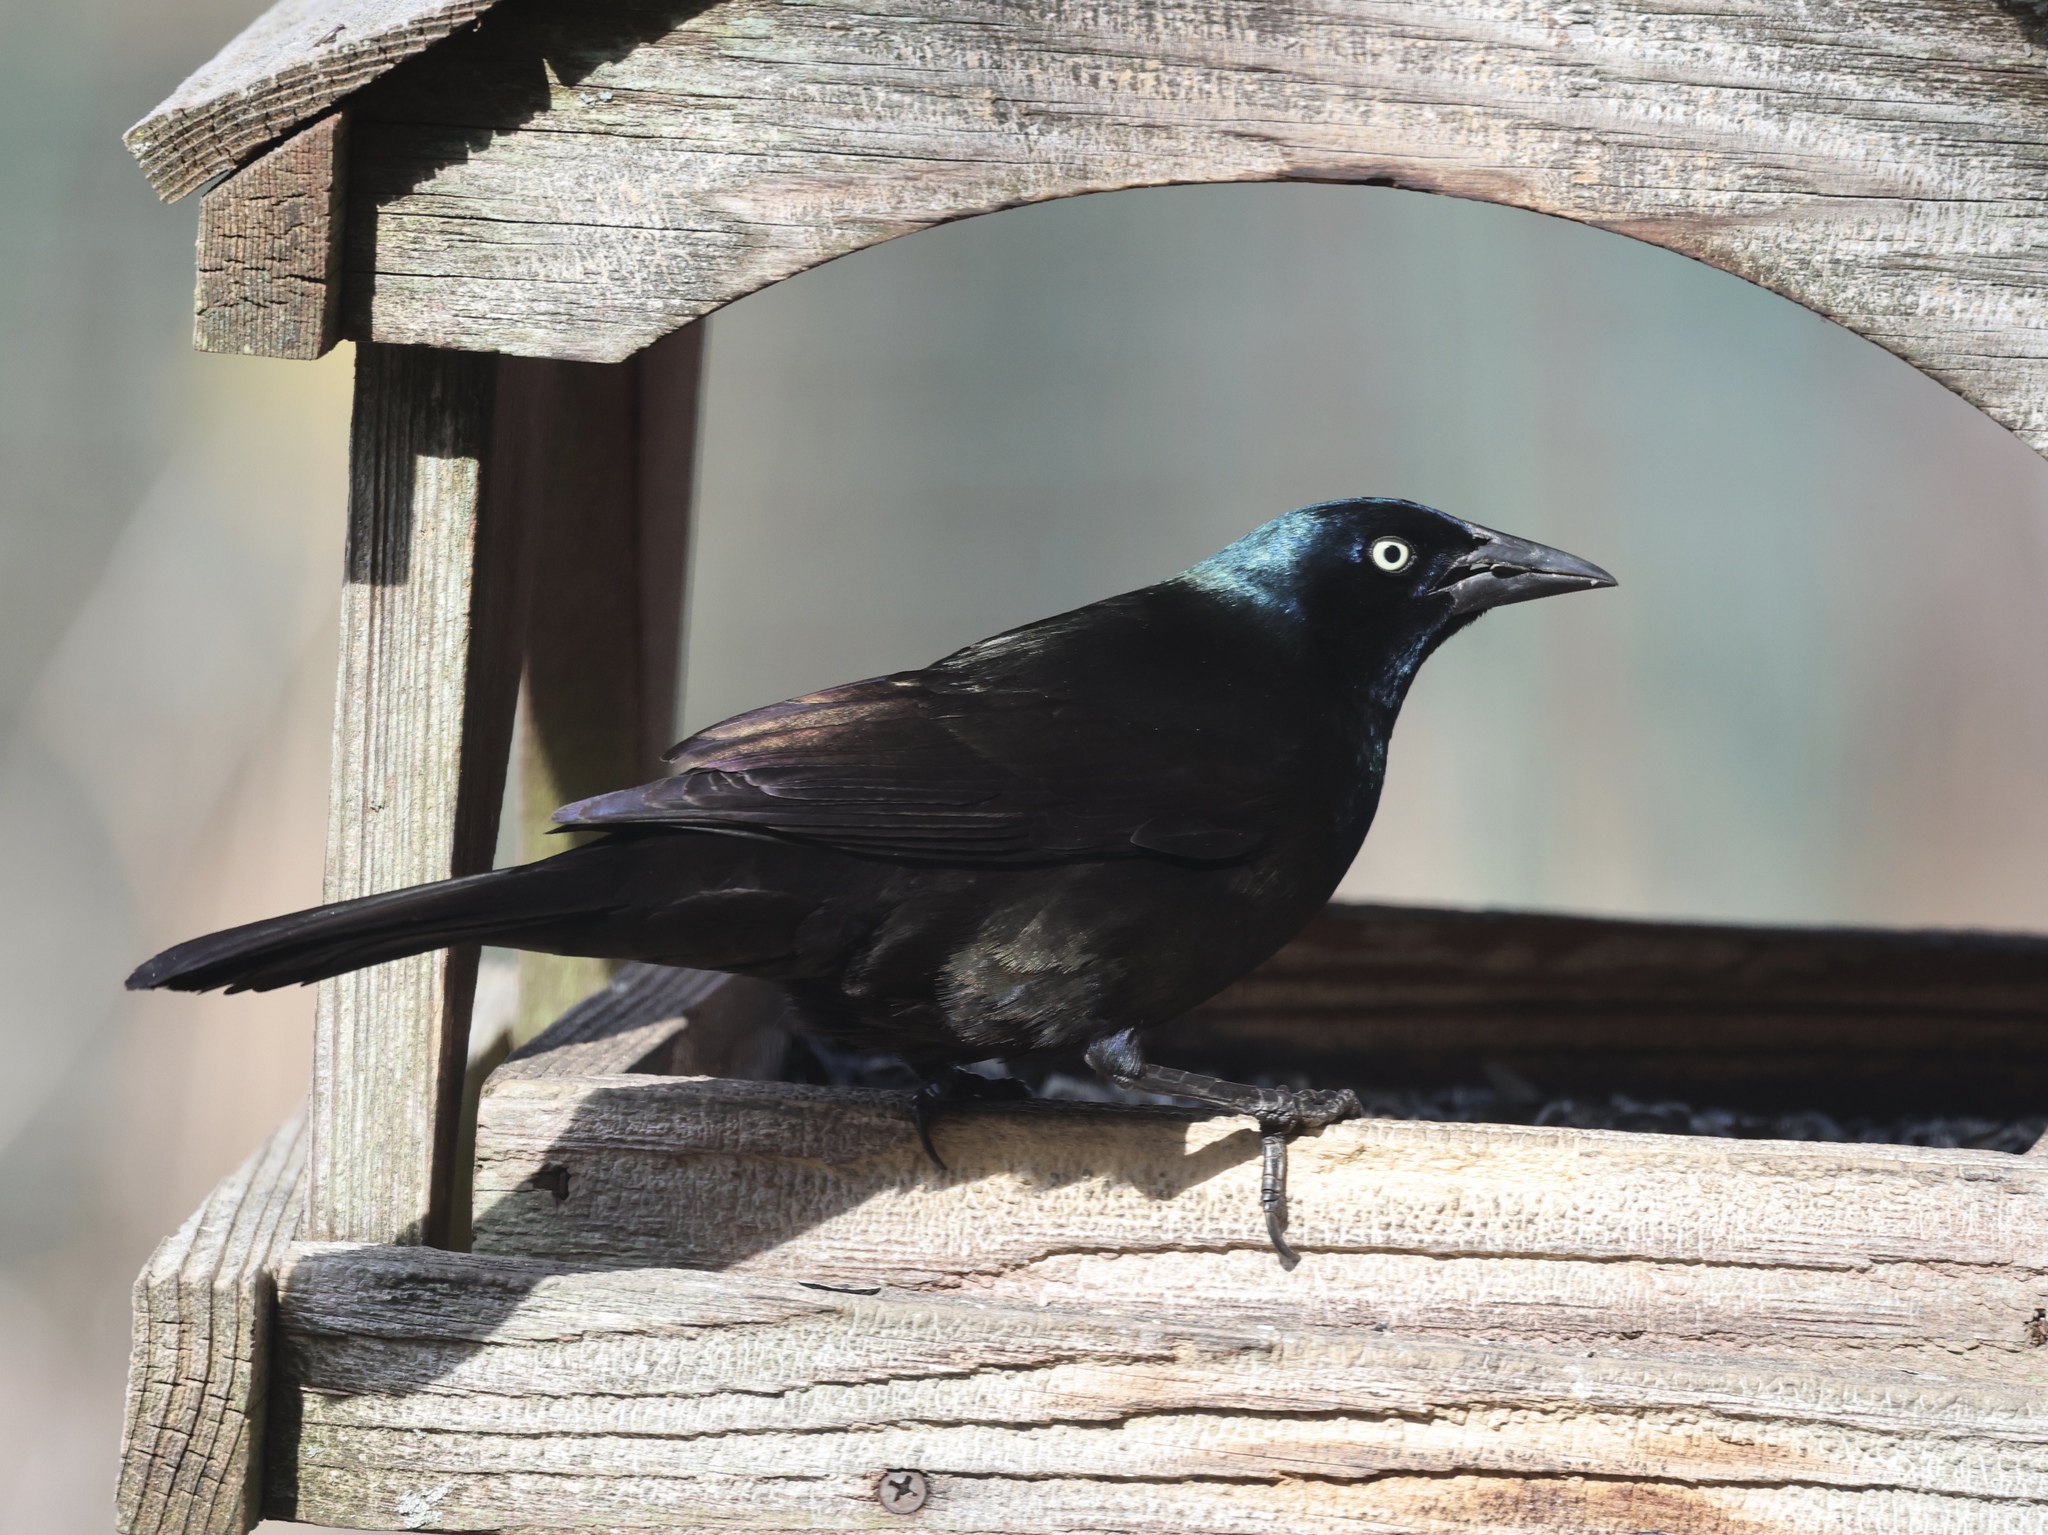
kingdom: Animalia
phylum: Chordata
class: Aves
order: Passeriformes
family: Icteridae
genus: Quiscalus
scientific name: Quiscalus quiscula
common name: Common grackle
